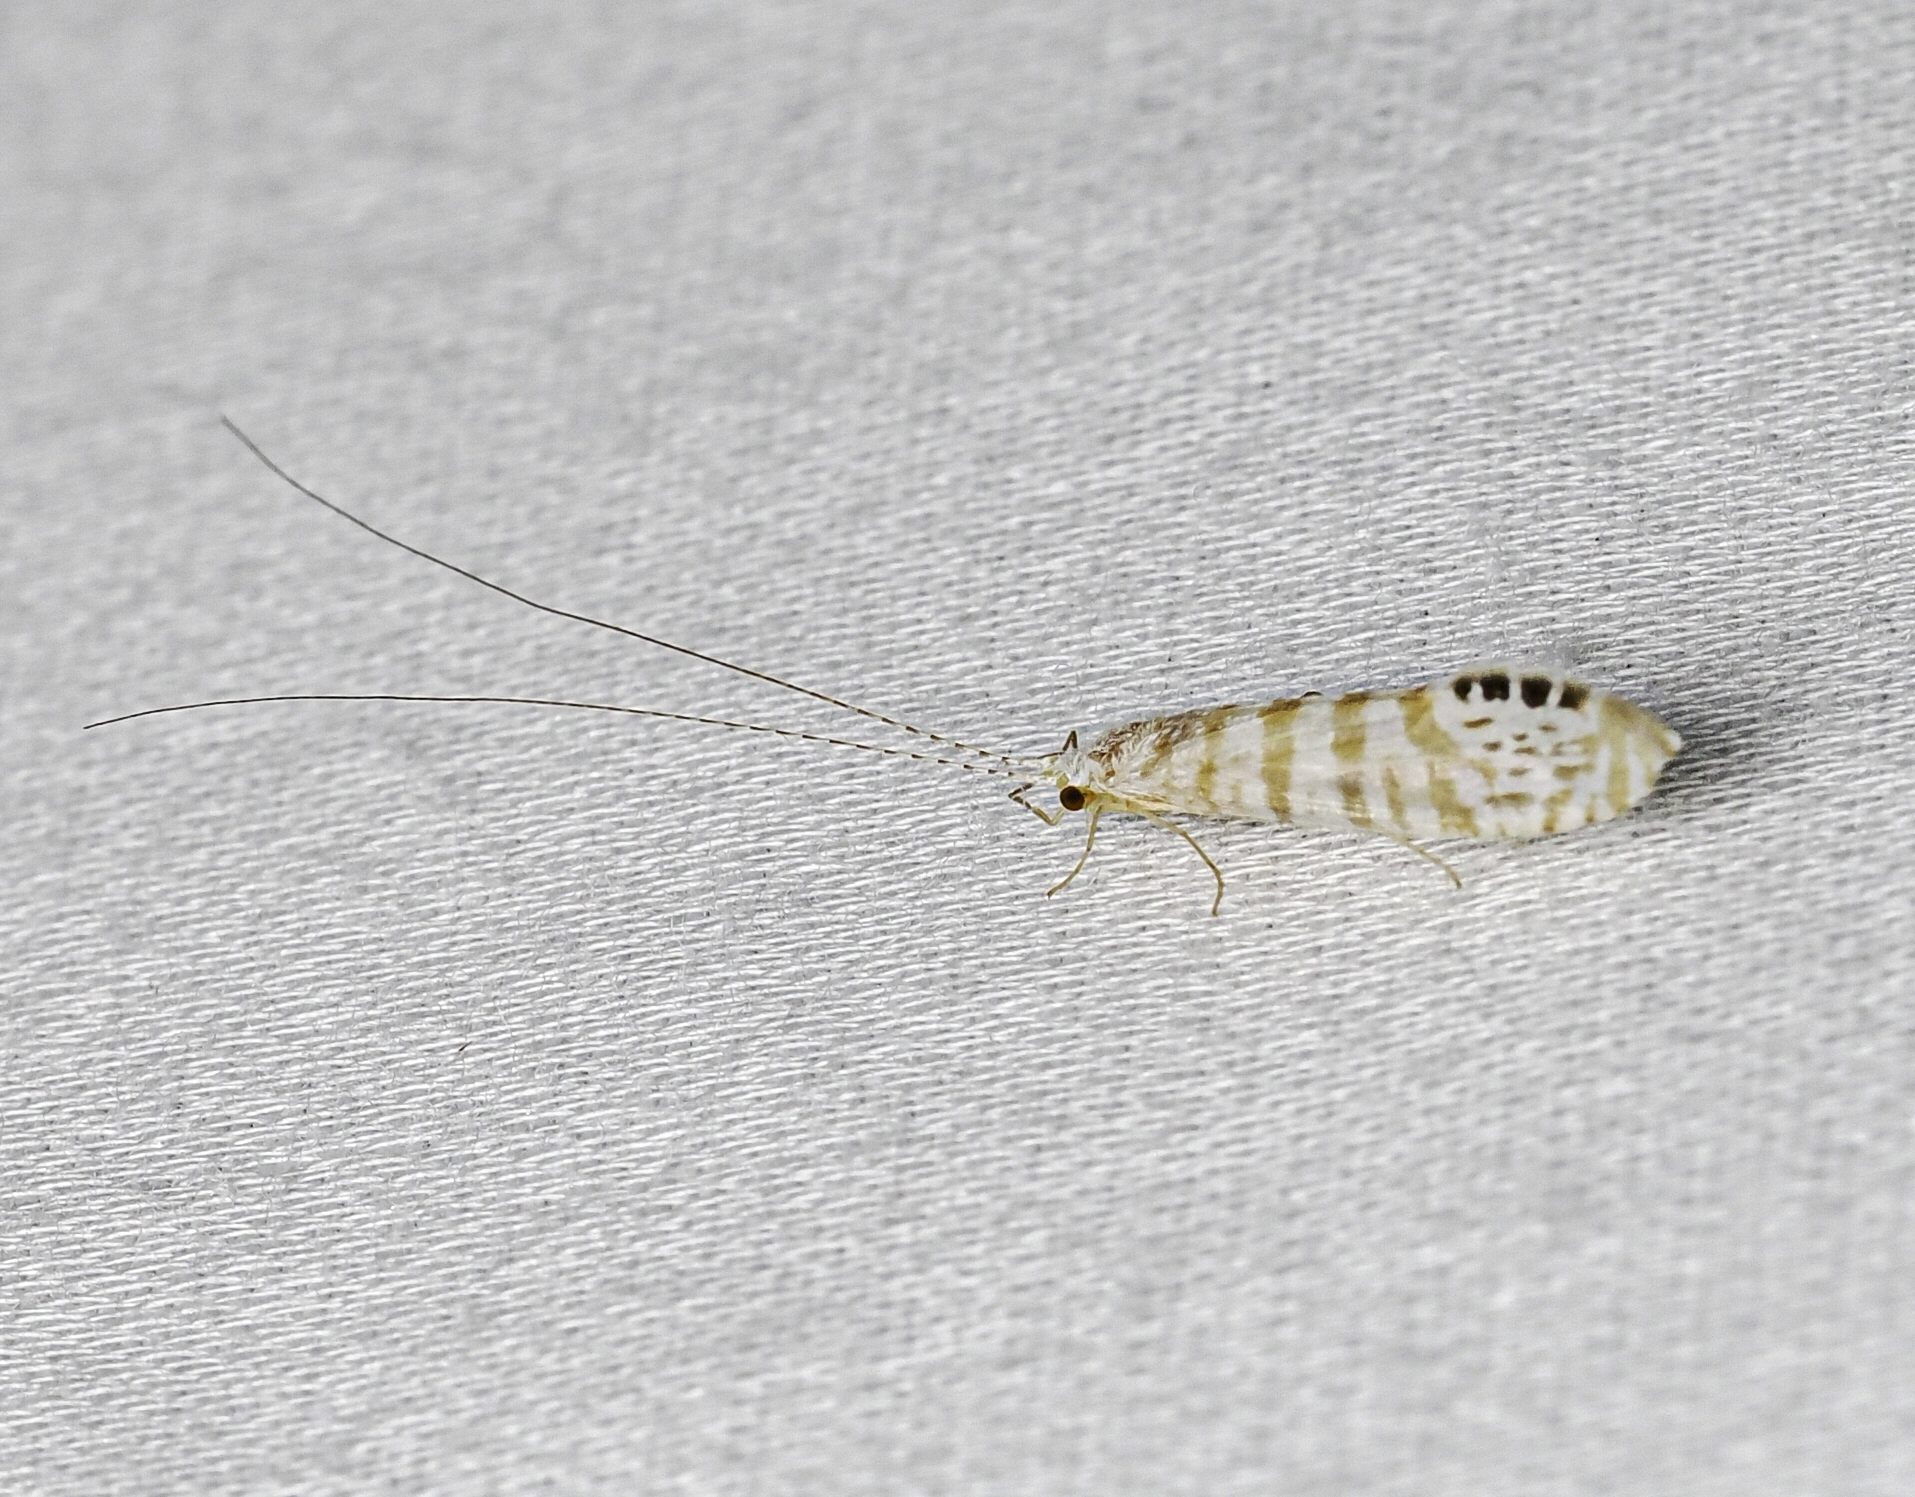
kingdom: Animalia
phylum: Arthropoda
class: Insecta
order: Trichoptera
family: Leptoceridae
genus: Nectopsyche
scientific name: Nectopsyche exquisita
